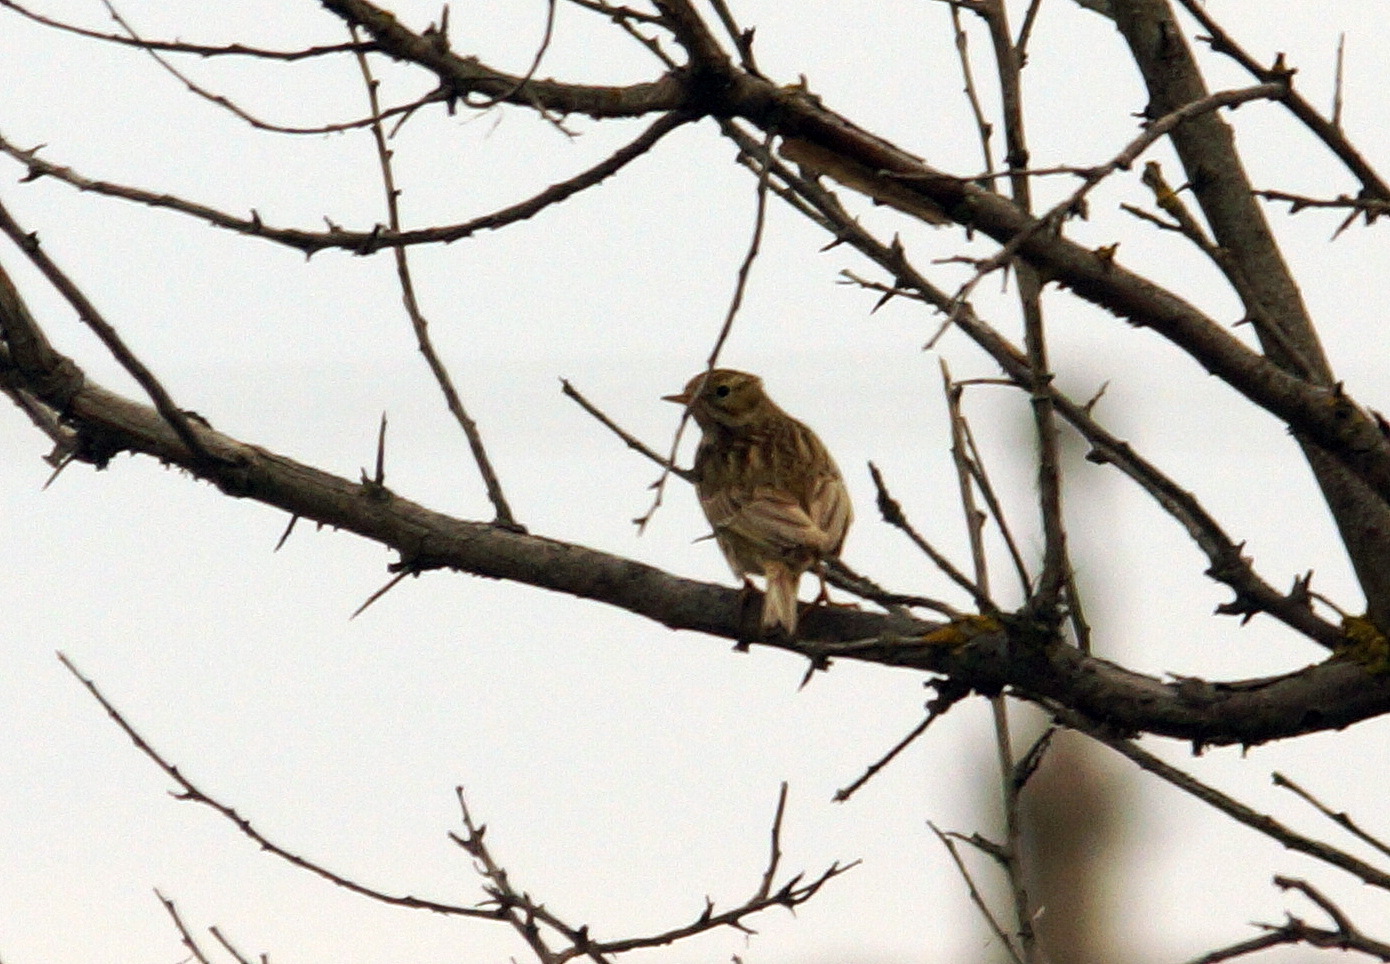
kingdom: Animalia
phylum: Chordata
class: Aves
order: Passeriformes
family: Motacillidae
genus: Anthus
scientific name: Anthus pratensis
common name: Meadow pipit
